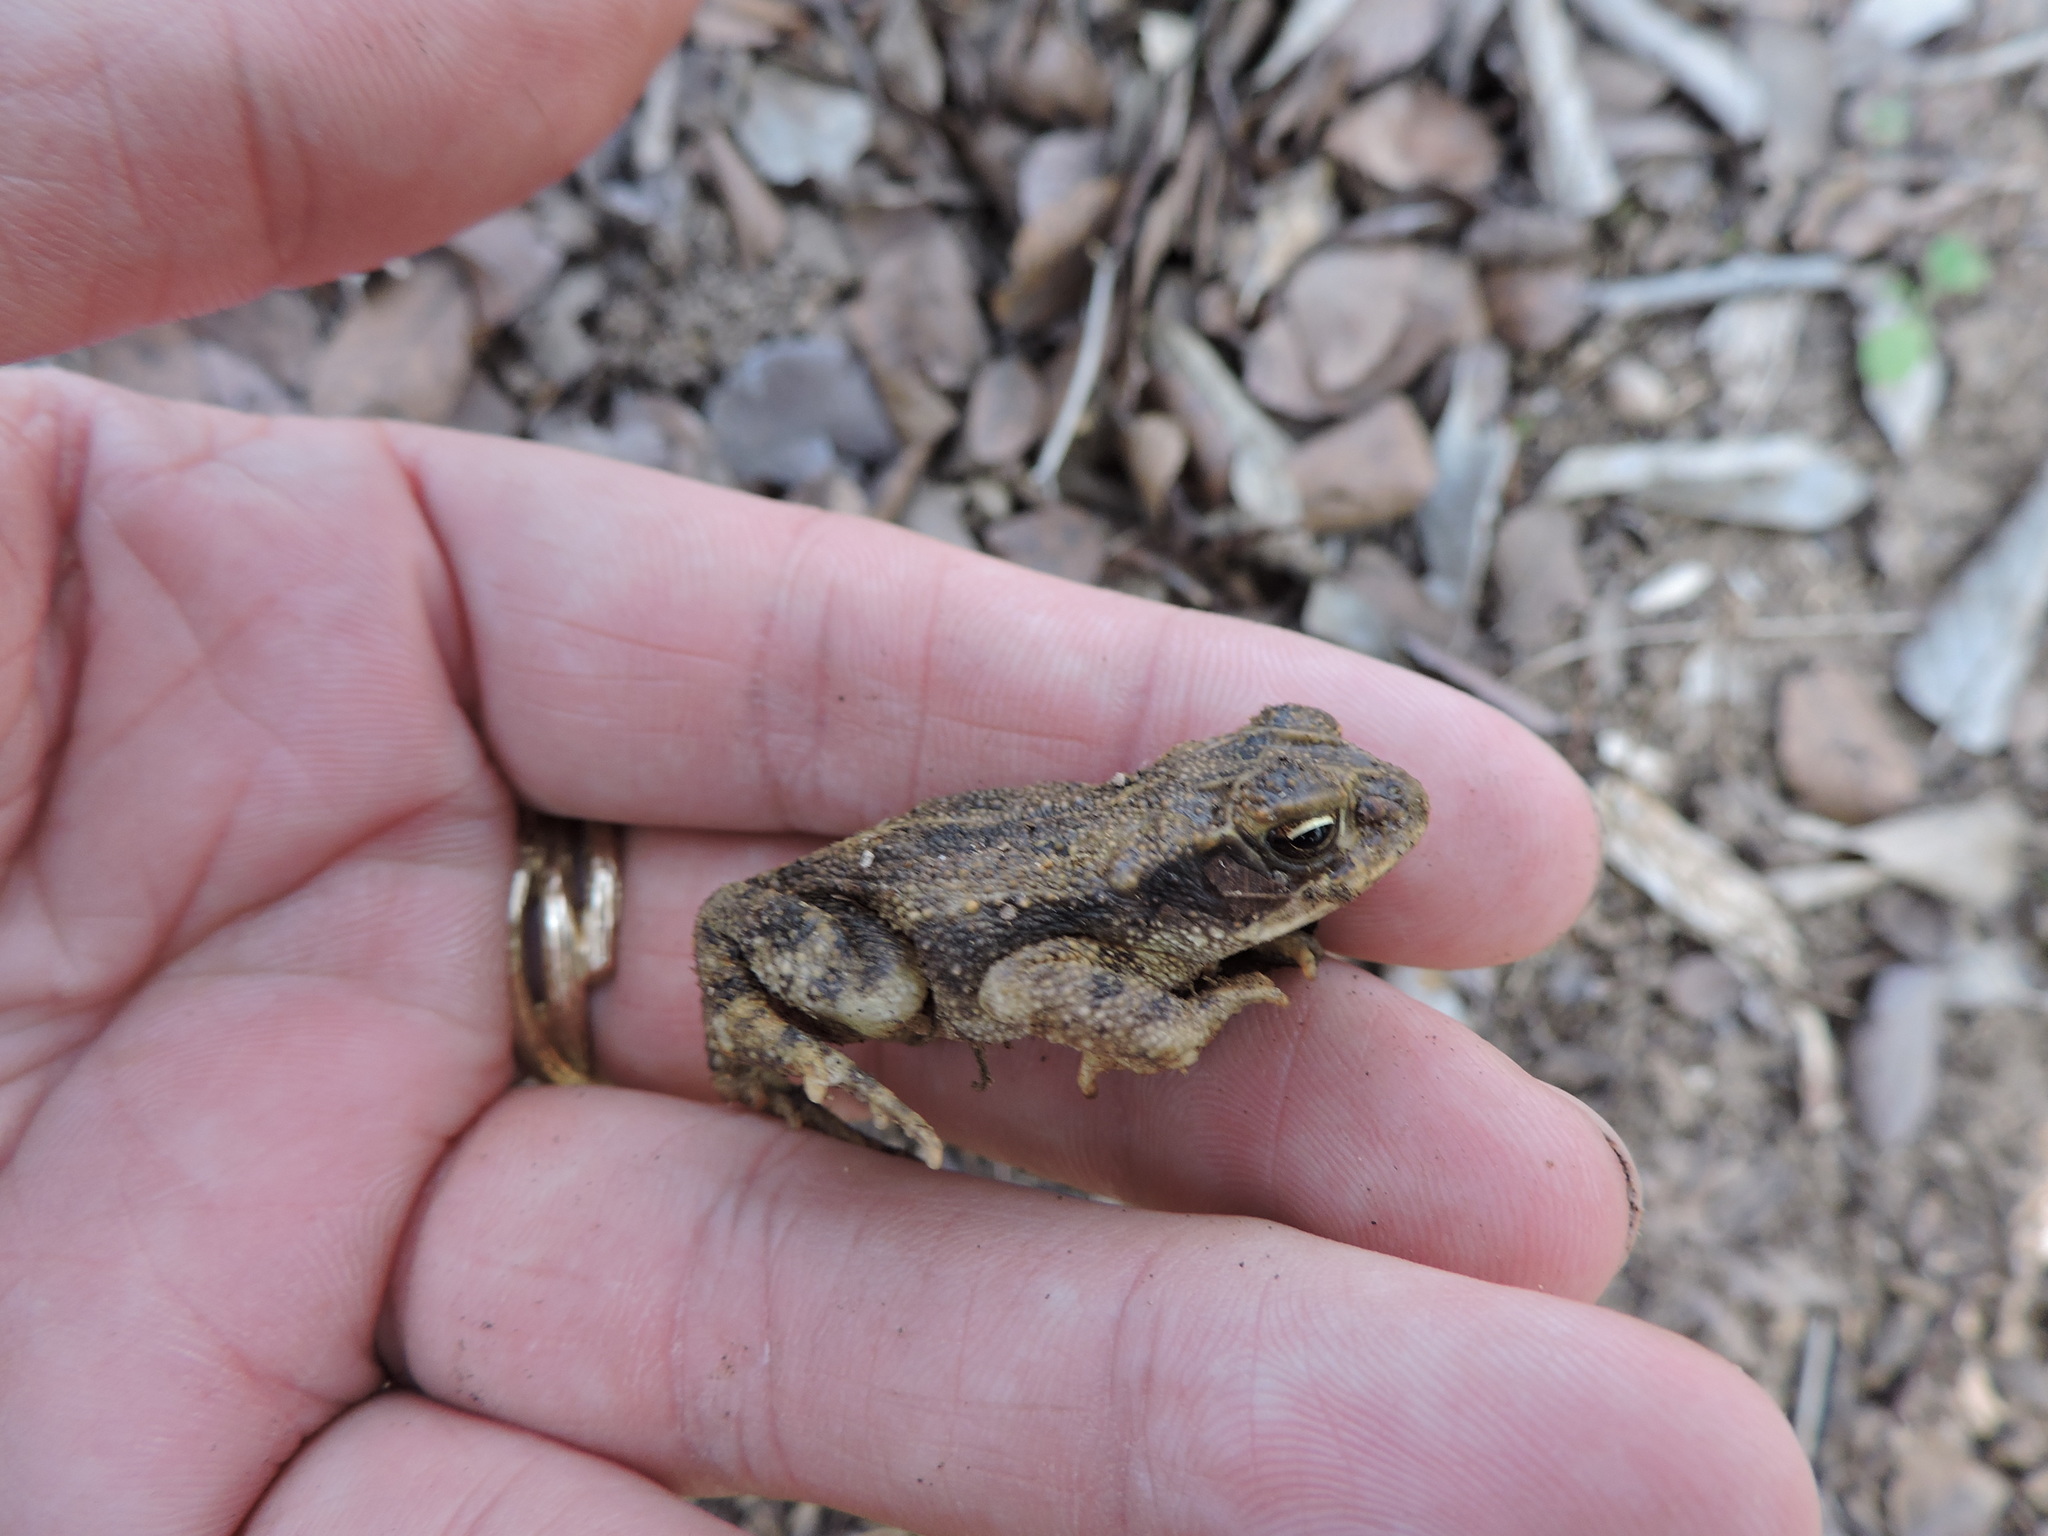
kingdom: Animalia
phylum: Chordata
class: Amphibia
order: Anura
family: Bufonidae
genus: Incilius
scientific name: Incilius nebulifer
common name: Gulf coast toad
